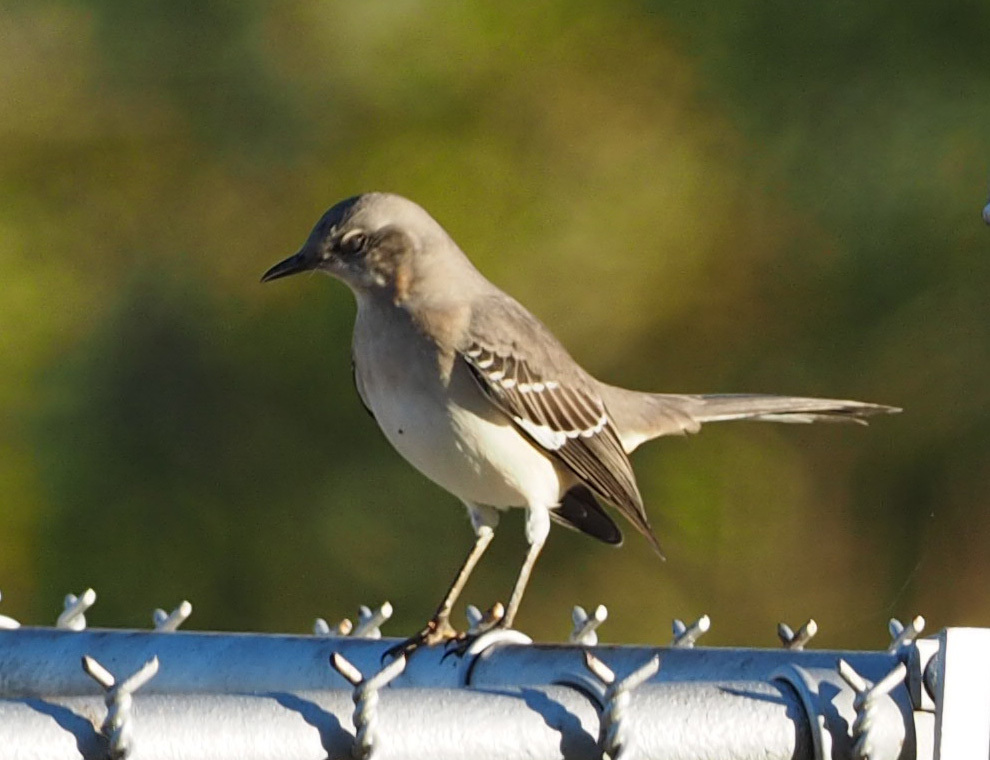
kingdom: Animalia
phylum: Chordata
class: Aves
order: Passeriformes
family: Mimidae
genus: Mimus
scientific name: Mimus polyglottos
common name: Northern mockingbird
